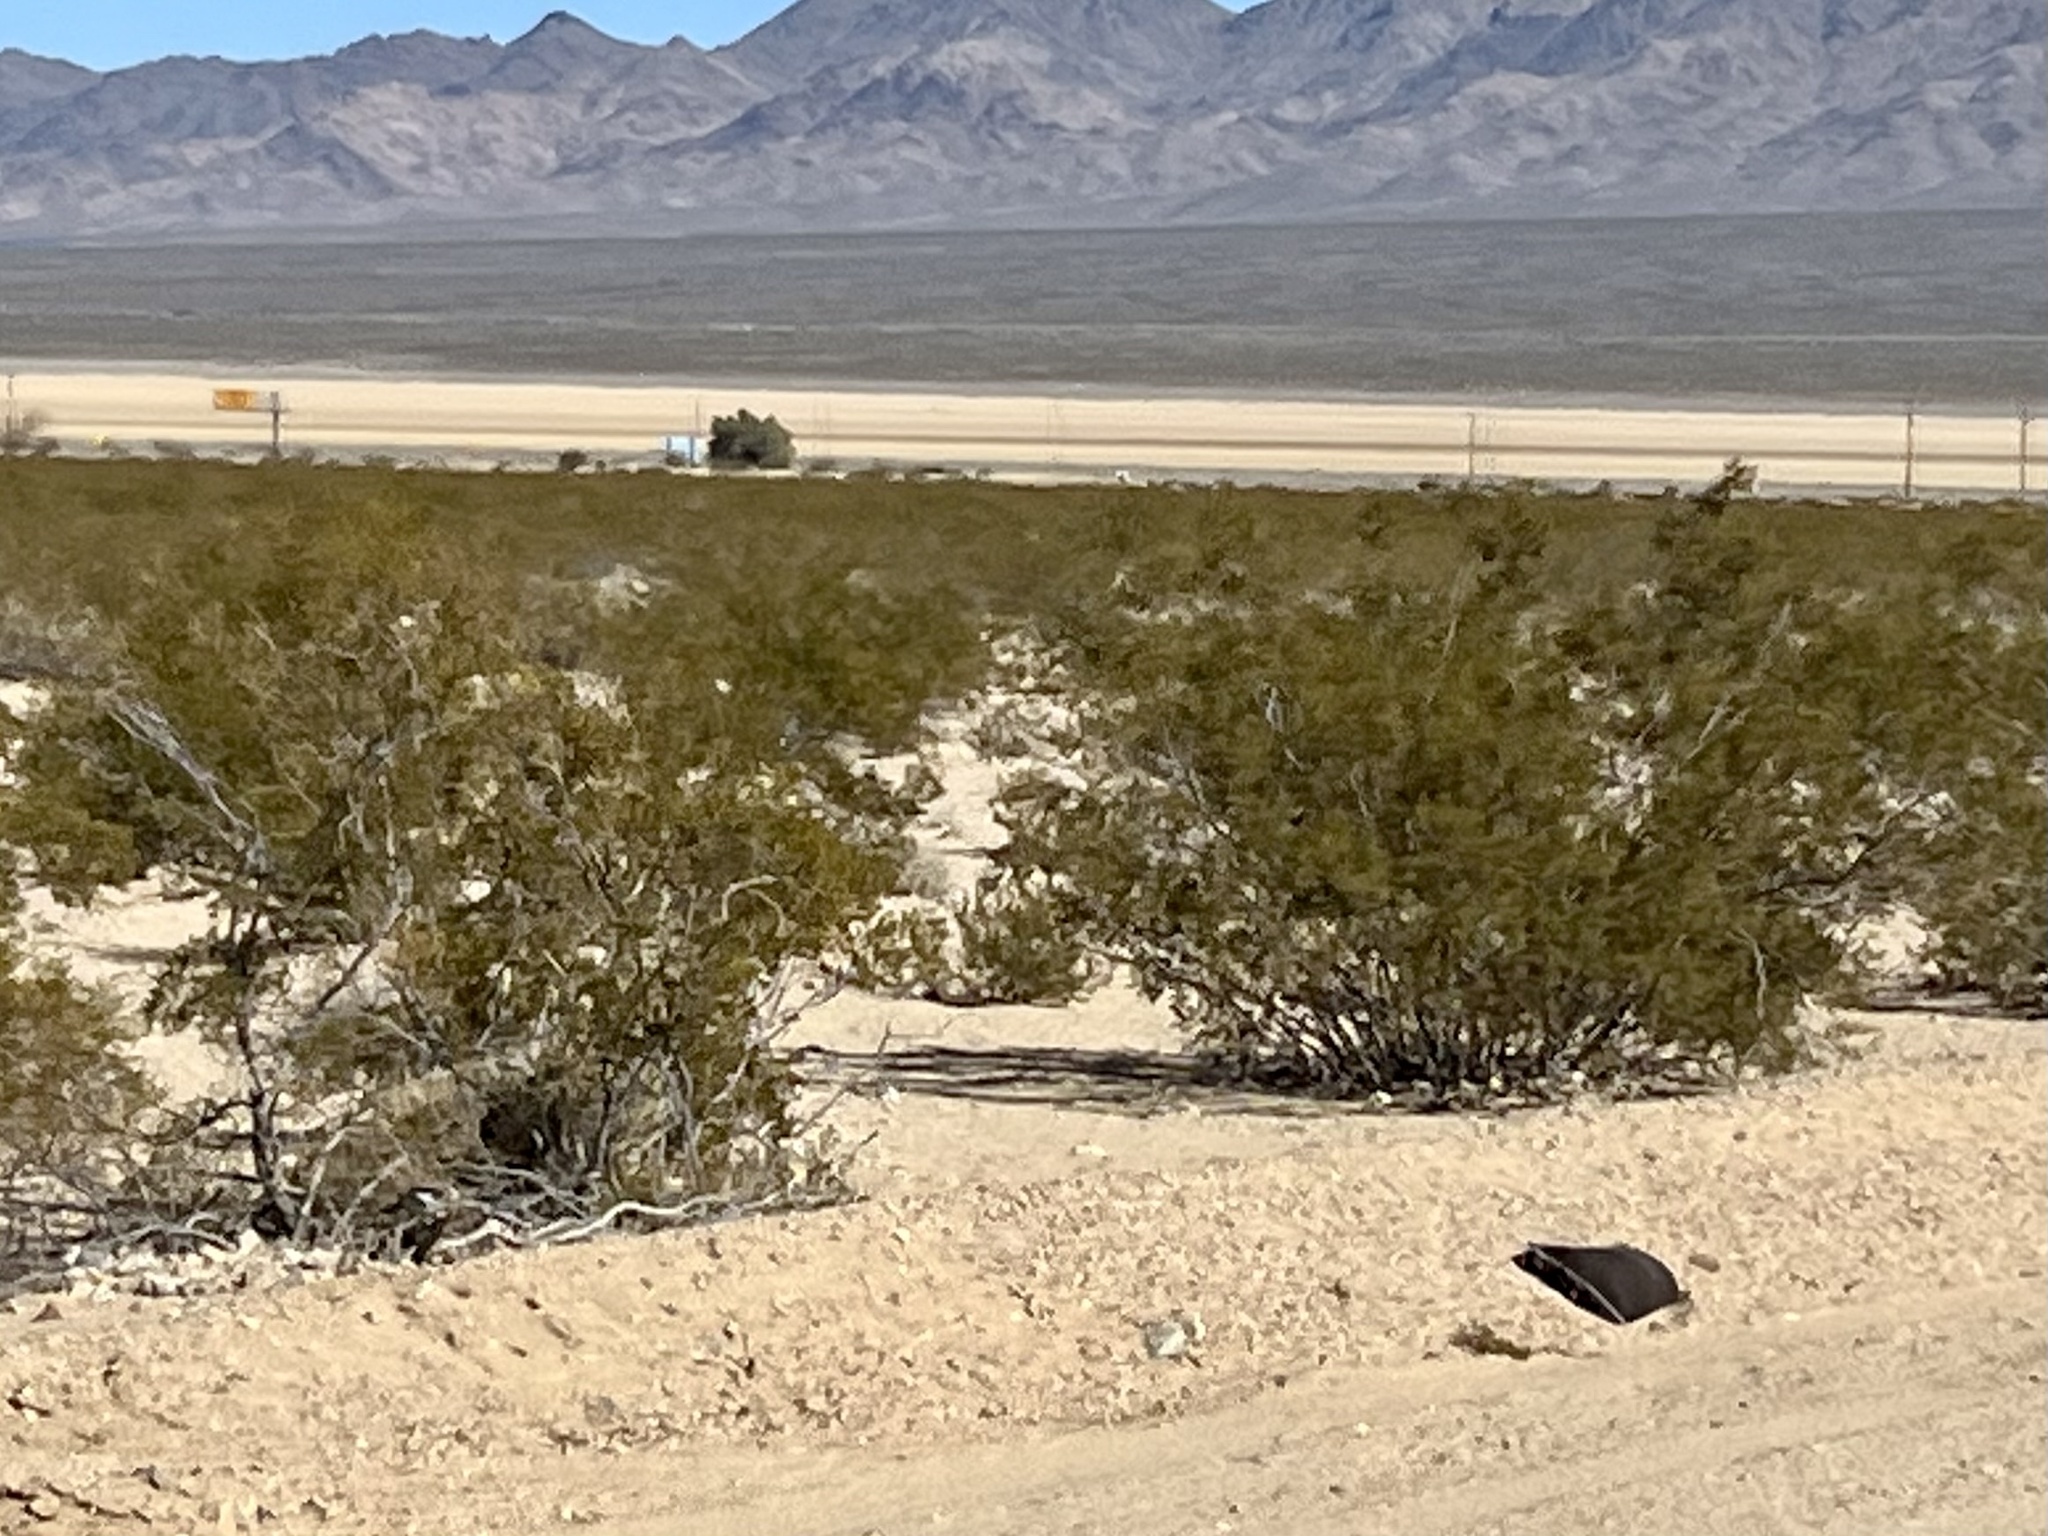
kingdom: Plantae
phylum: Tracheophyta
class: Magnoliopsida
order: Zygophyllales
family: Zygophyllaceae
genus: Larrea
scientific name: Larrea tridentata
